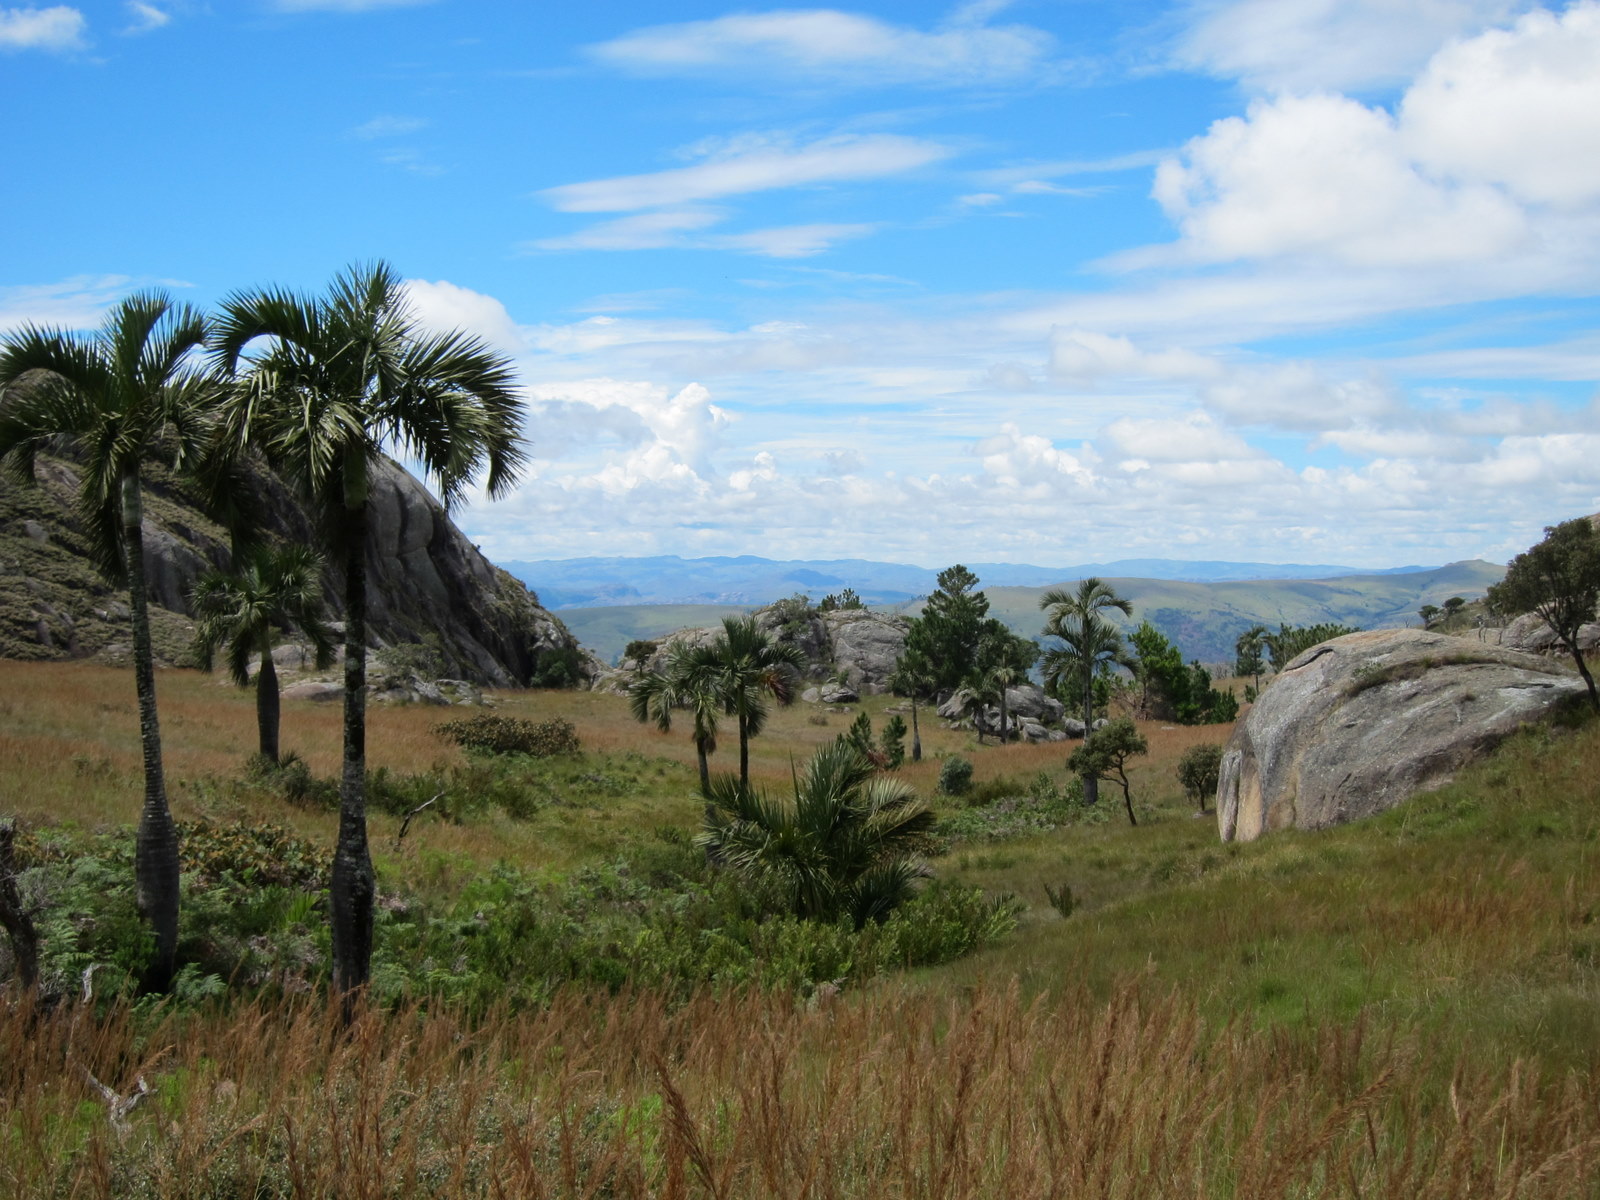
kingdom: Plantae
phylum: Tracheophyta
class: Liliopsida
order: Arecales
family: Arecaceae
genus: Dypsis
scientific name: Dypsis decipiens
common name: Manambe palm
